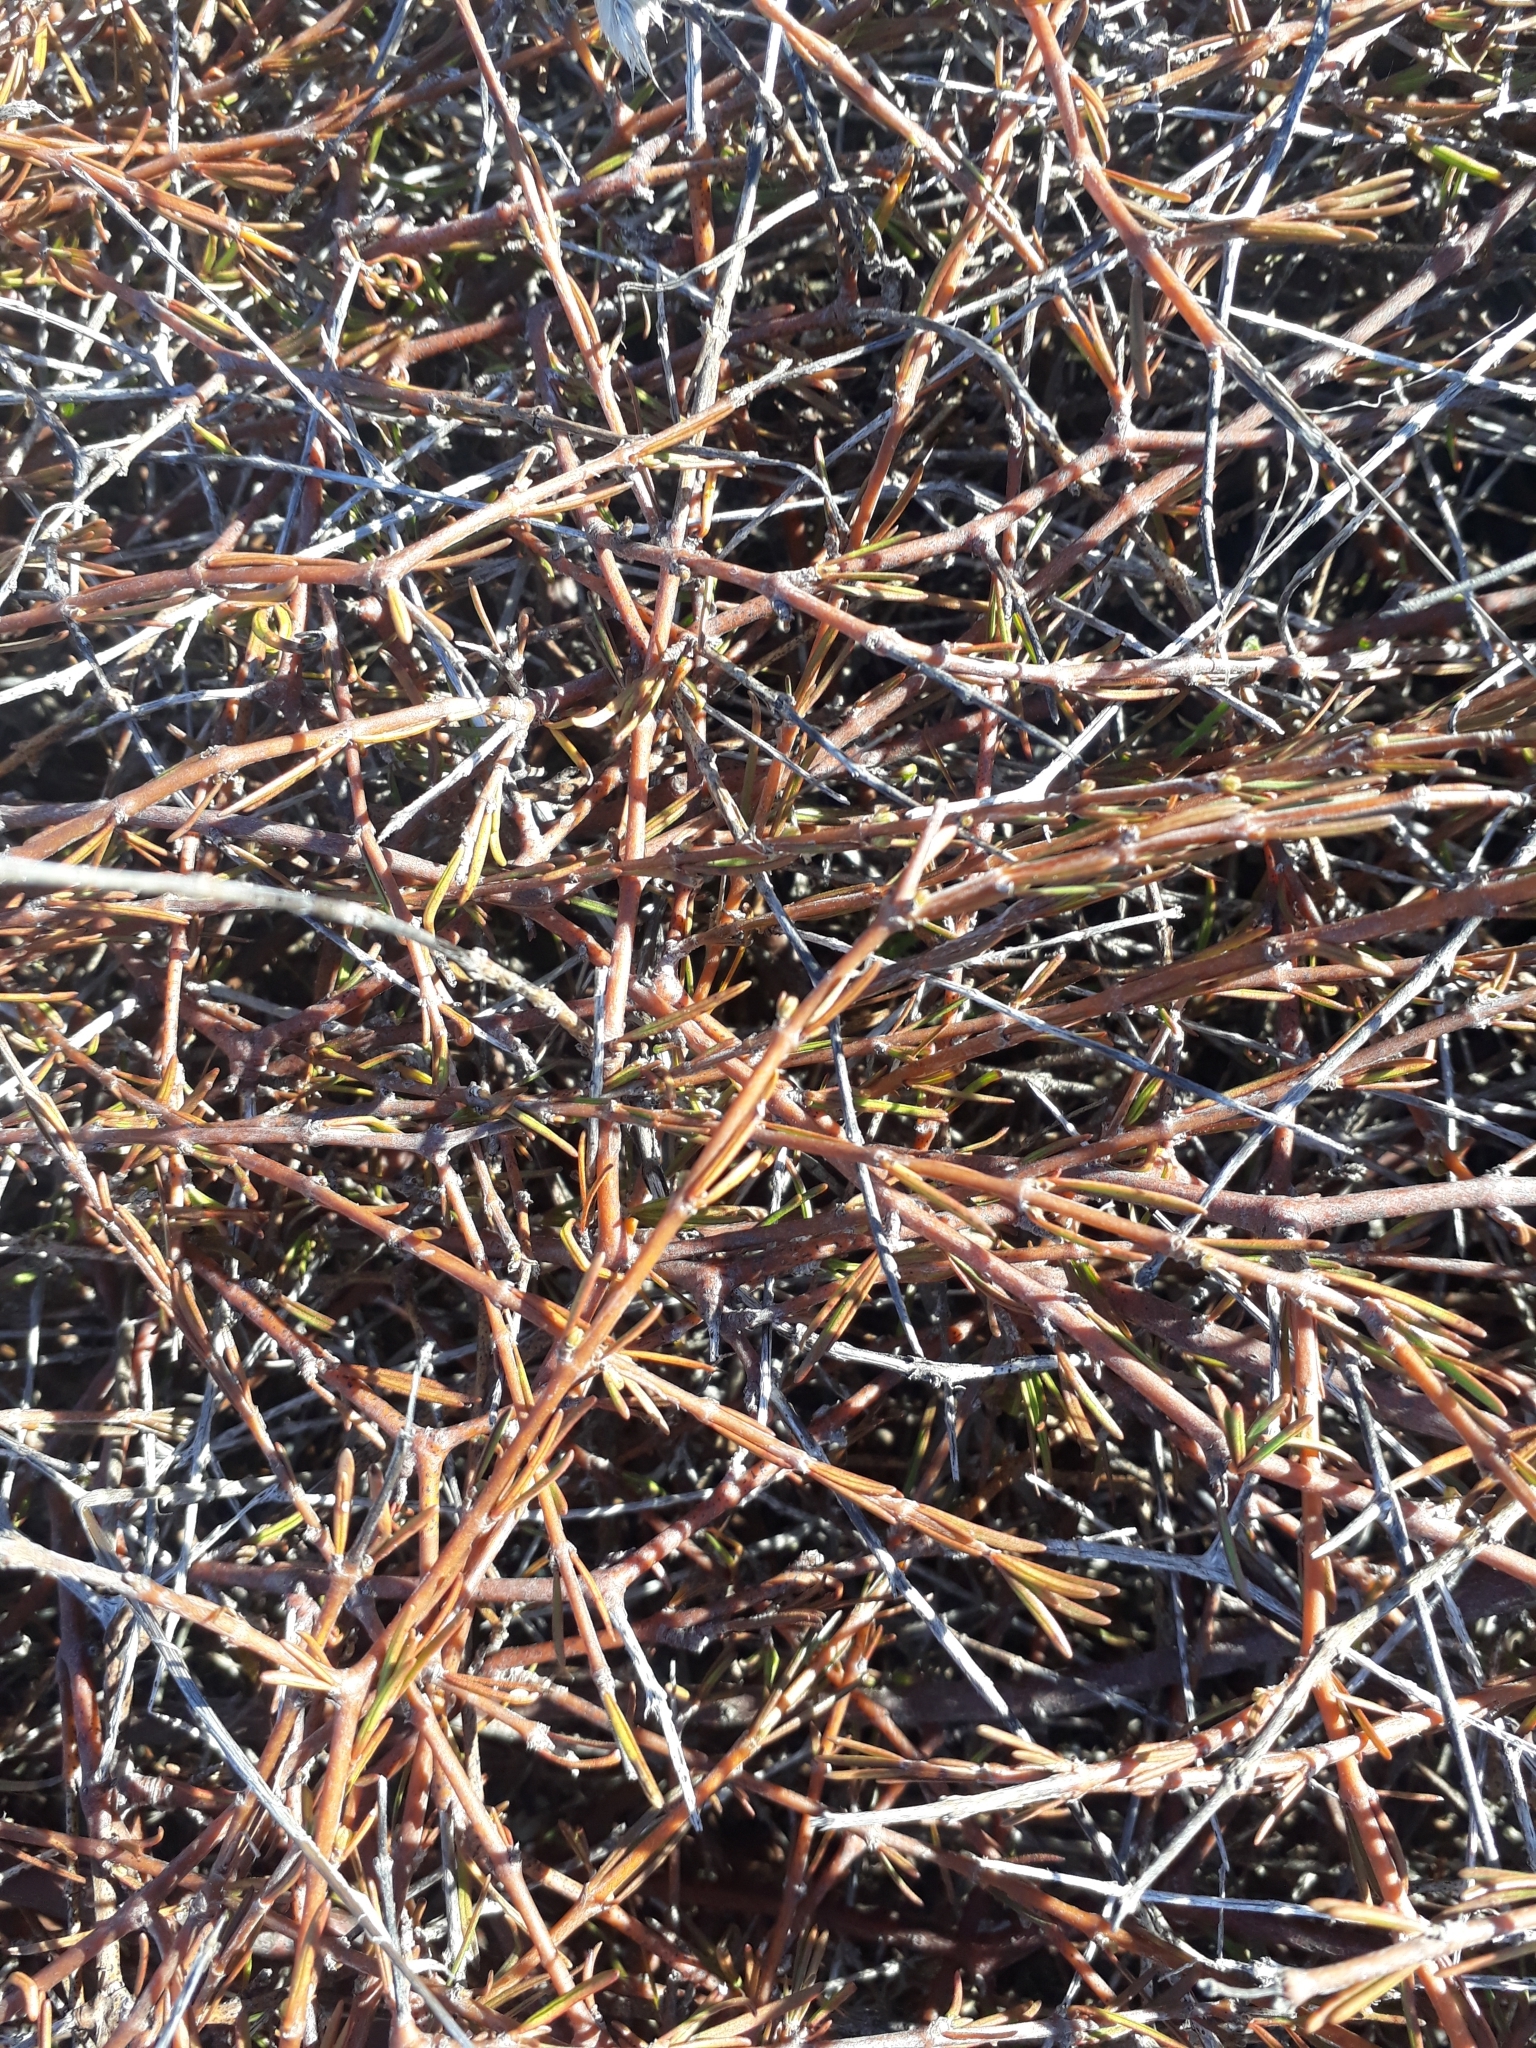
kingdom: Plantae
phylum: Tracheophyta
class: Magnoliopsida
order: Gentianales
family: Rubiaceae
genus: Coprosma
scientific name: Coprosma acerosa
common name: Sand coprosma
